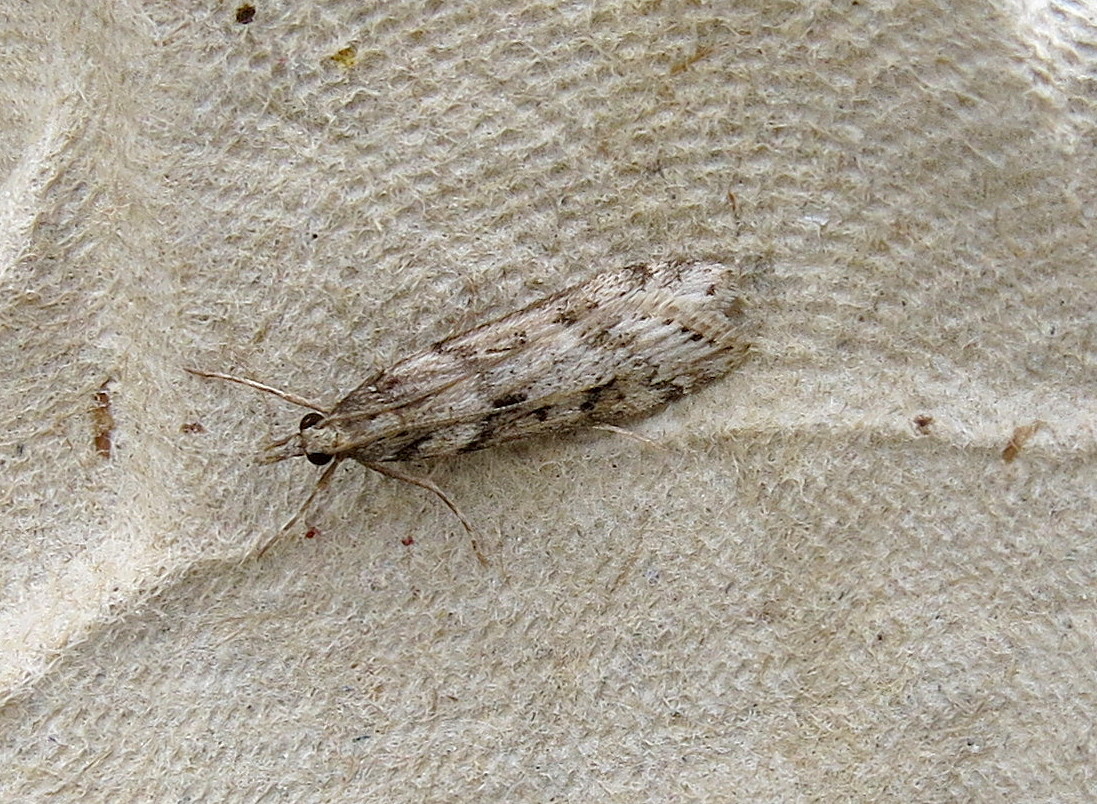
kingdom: Animalia
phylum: Arthropoda
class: Insecta
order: Lepidoptera
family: Crambidae
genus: Eudonia
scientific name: Eudonia angustea
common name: Narrow-winged grey
